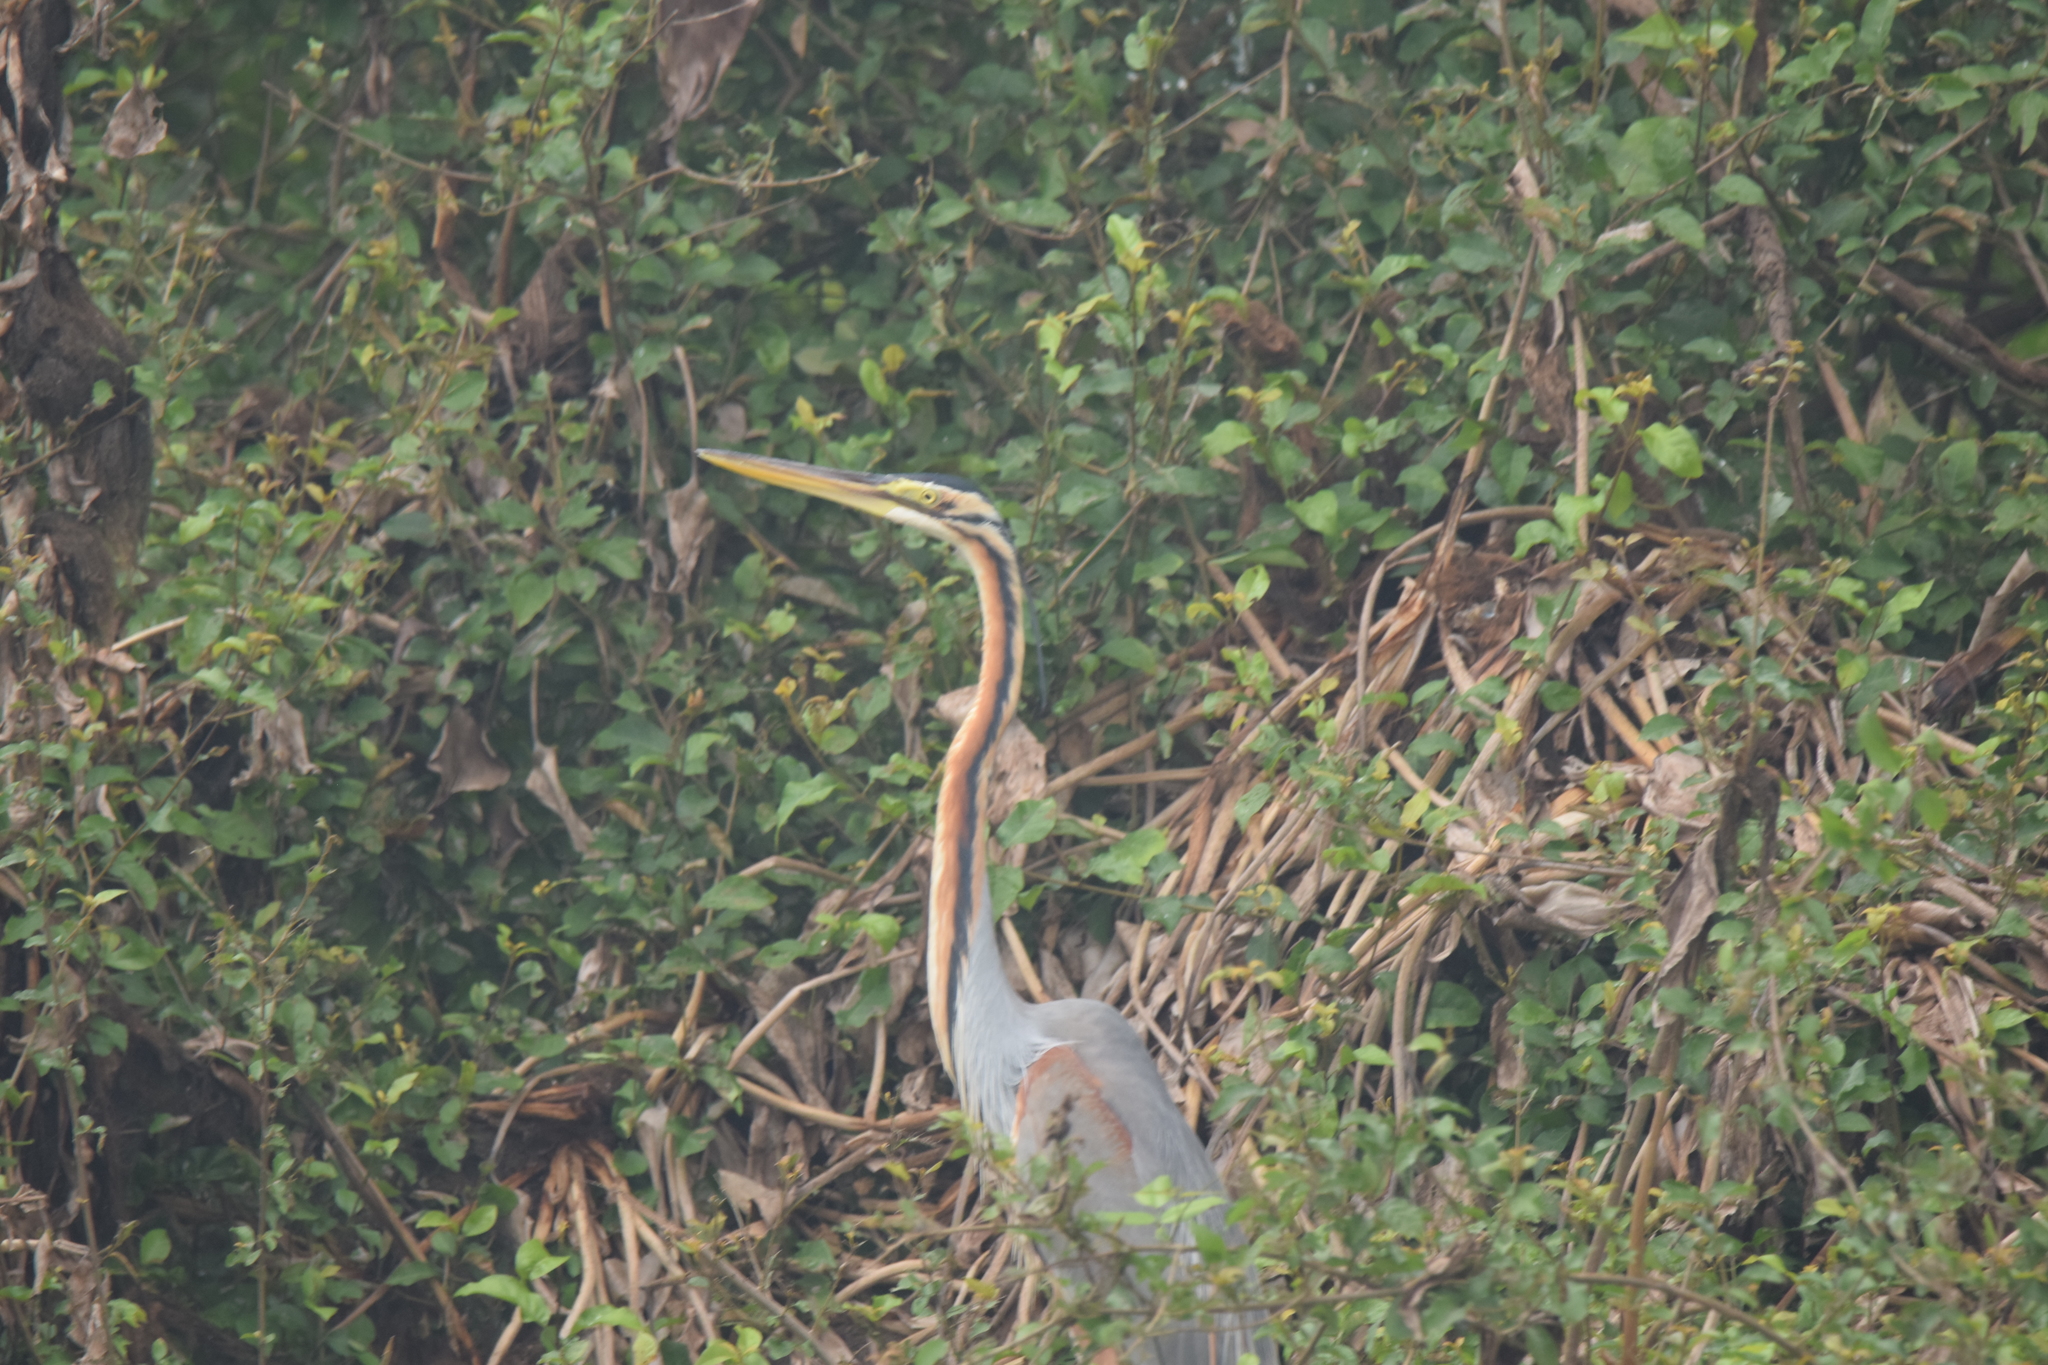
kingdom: Animalia
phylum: Chordata
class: Aves
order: Pelecaniformes
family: Ardeidae
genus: Ardea
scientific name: Ardea purpurea
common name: Purple heron
